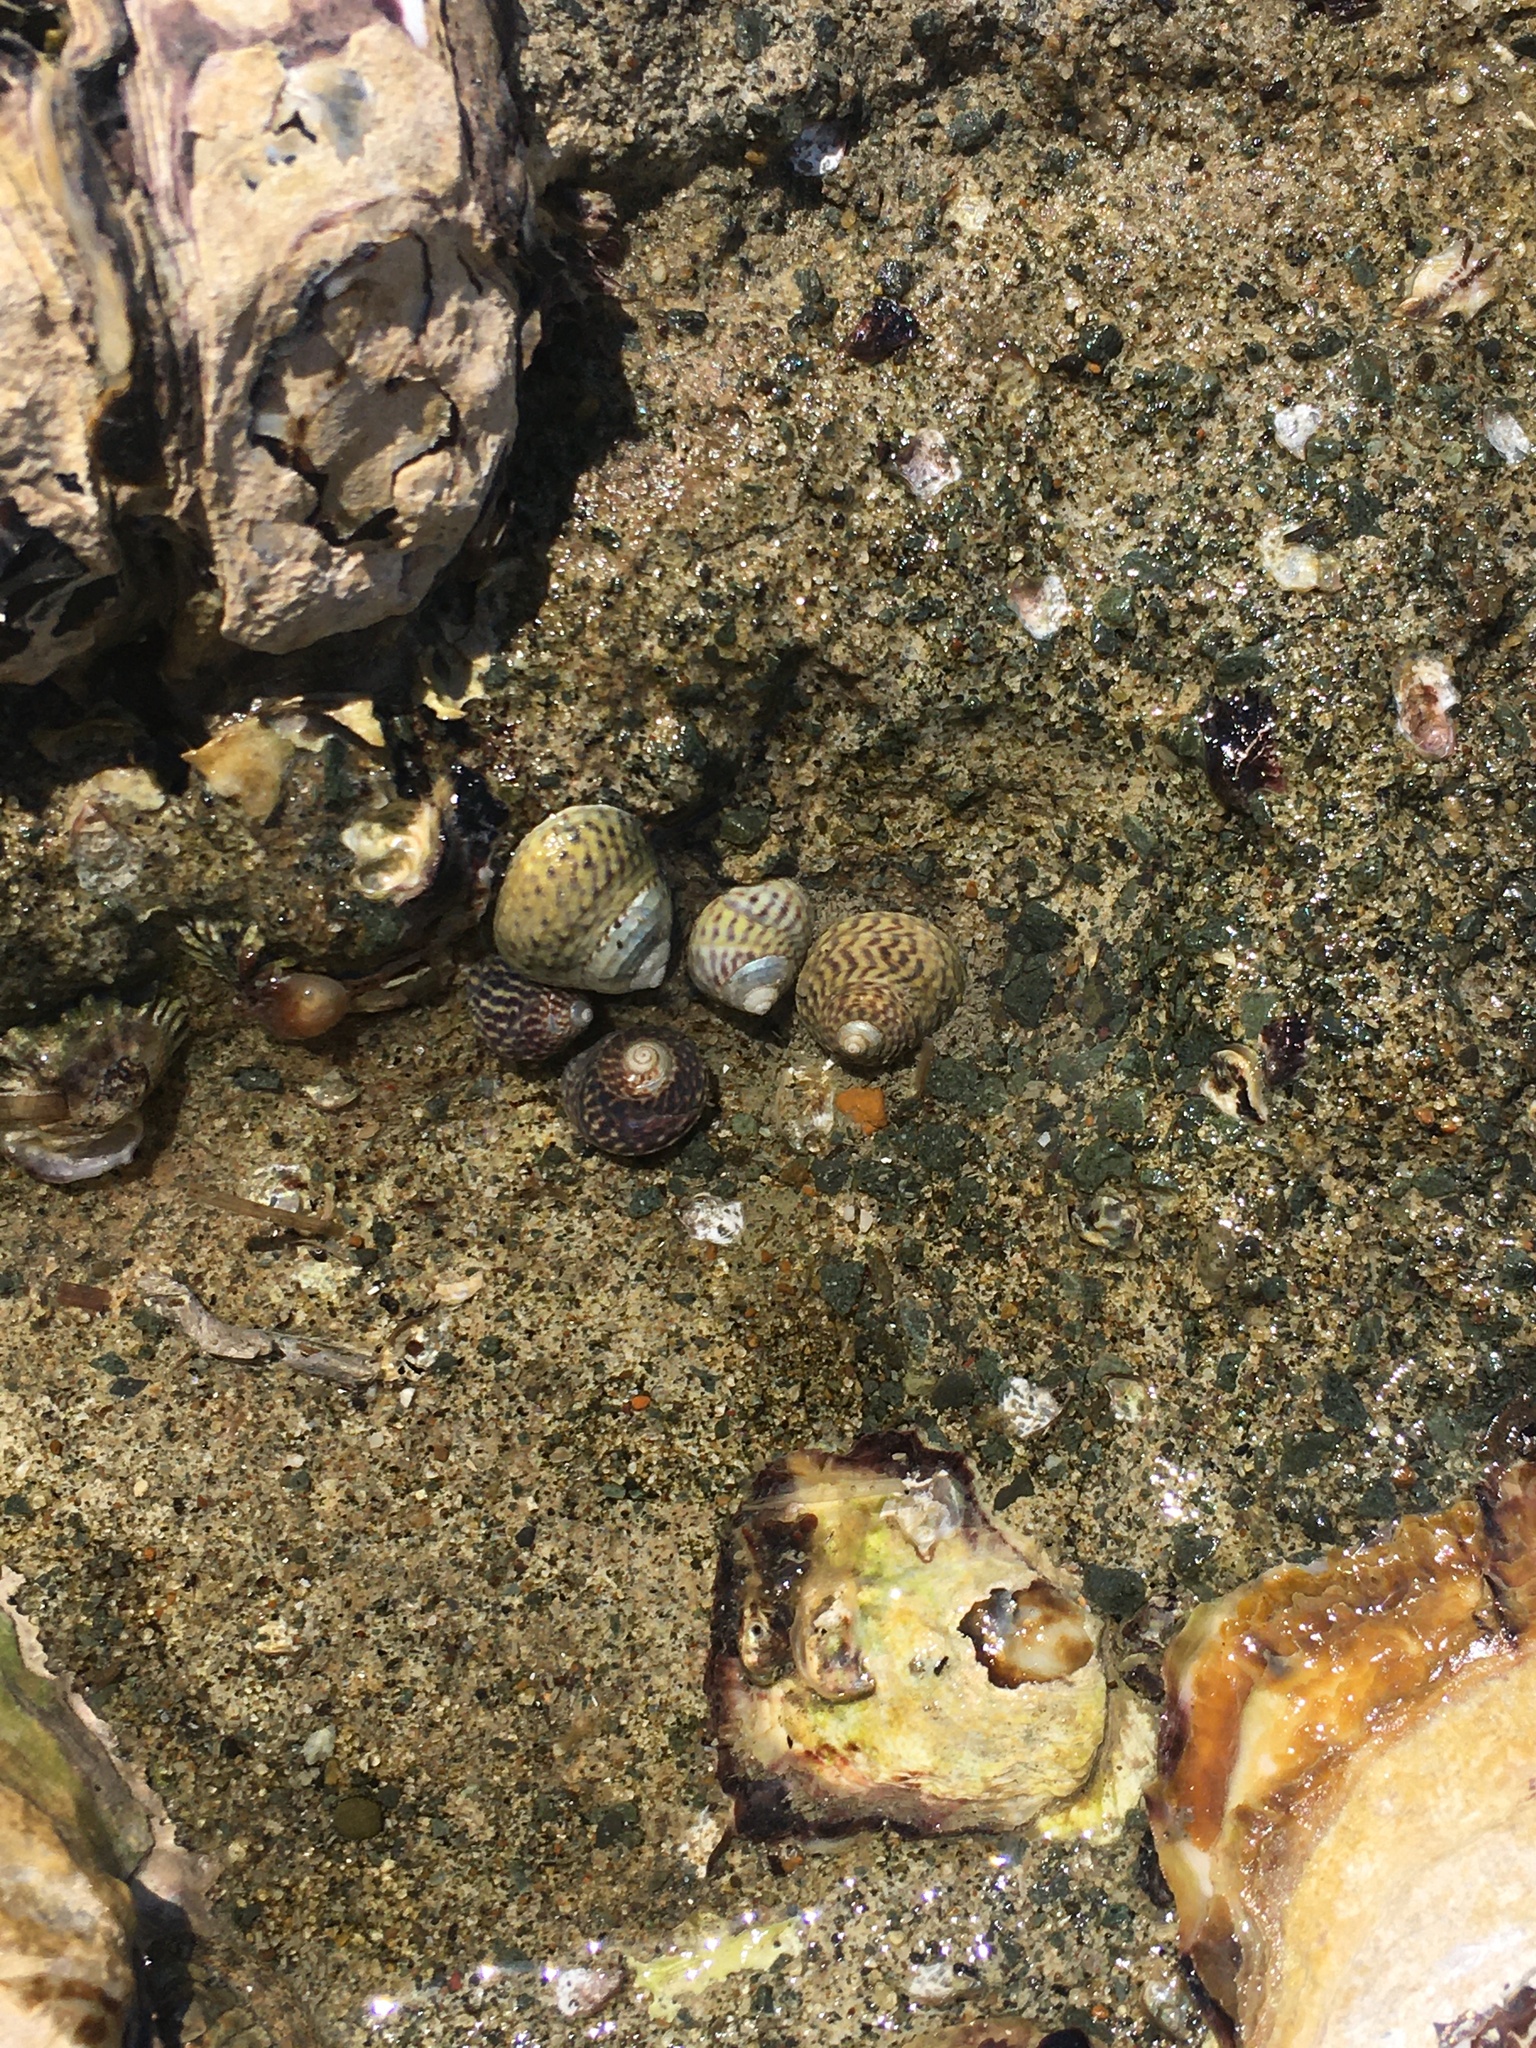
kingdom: Animalia
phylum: Mollusca
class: Gastropoda
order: Trochida
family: Trochidae
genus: Diloma
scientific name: Diloma subrostratum
